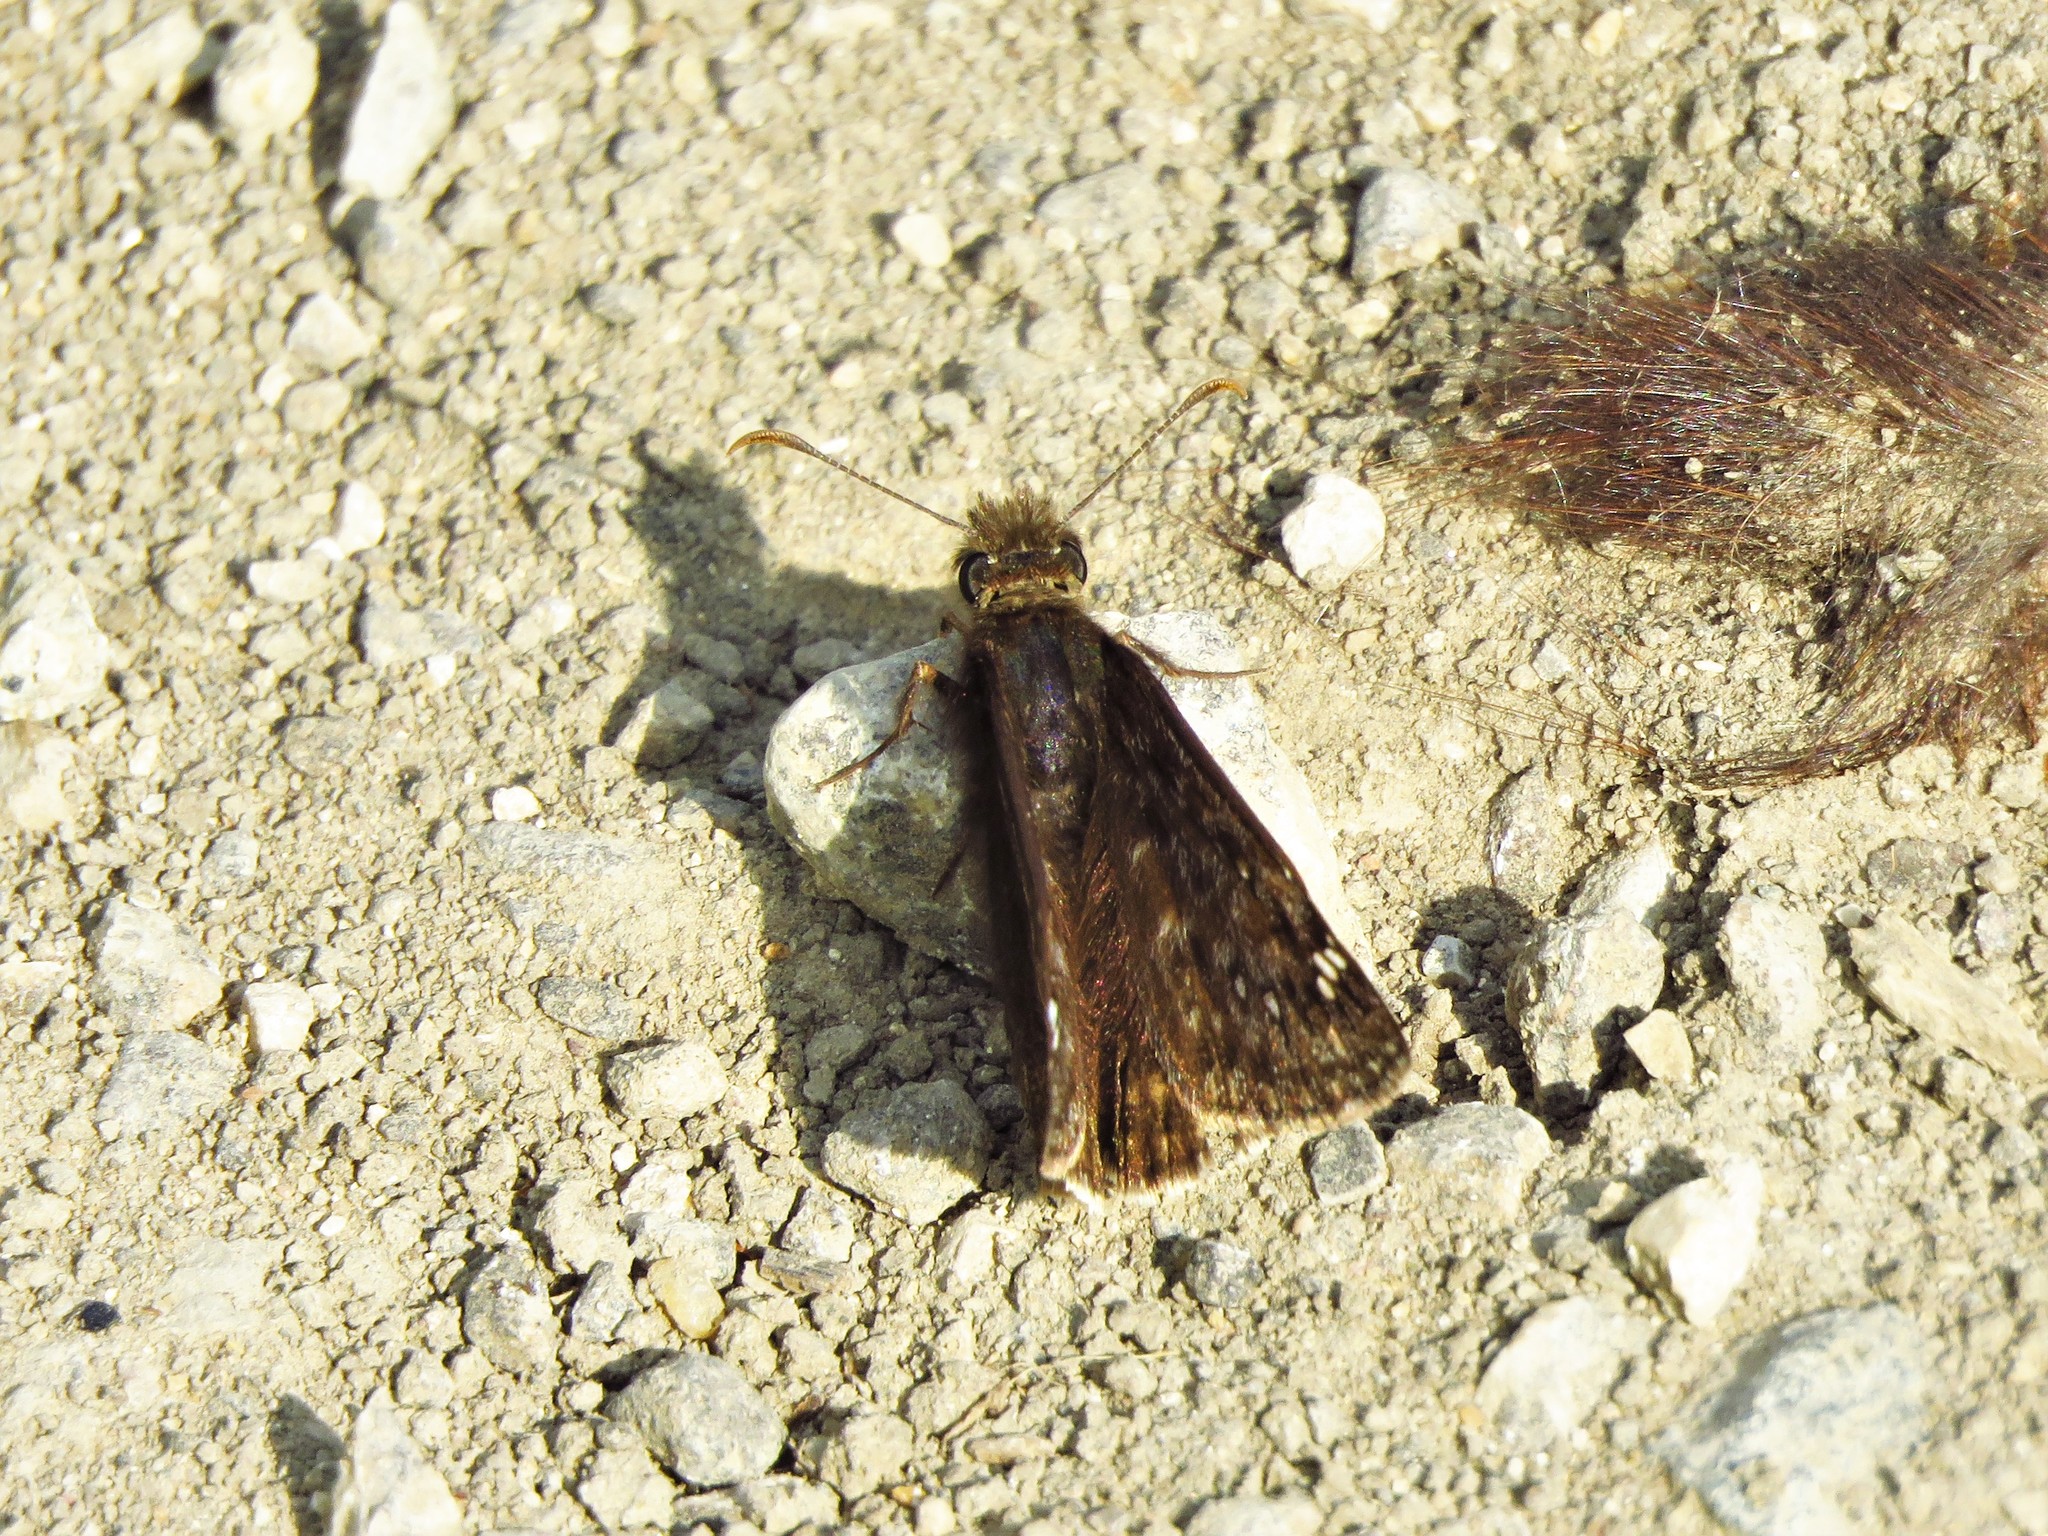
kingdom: Animalia
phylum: Arthropoda
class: Insecta
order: Lepidoptera
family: Hesperiidae
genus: Erynnis
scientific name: Erynnis horatius
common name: Horace's duskywing
